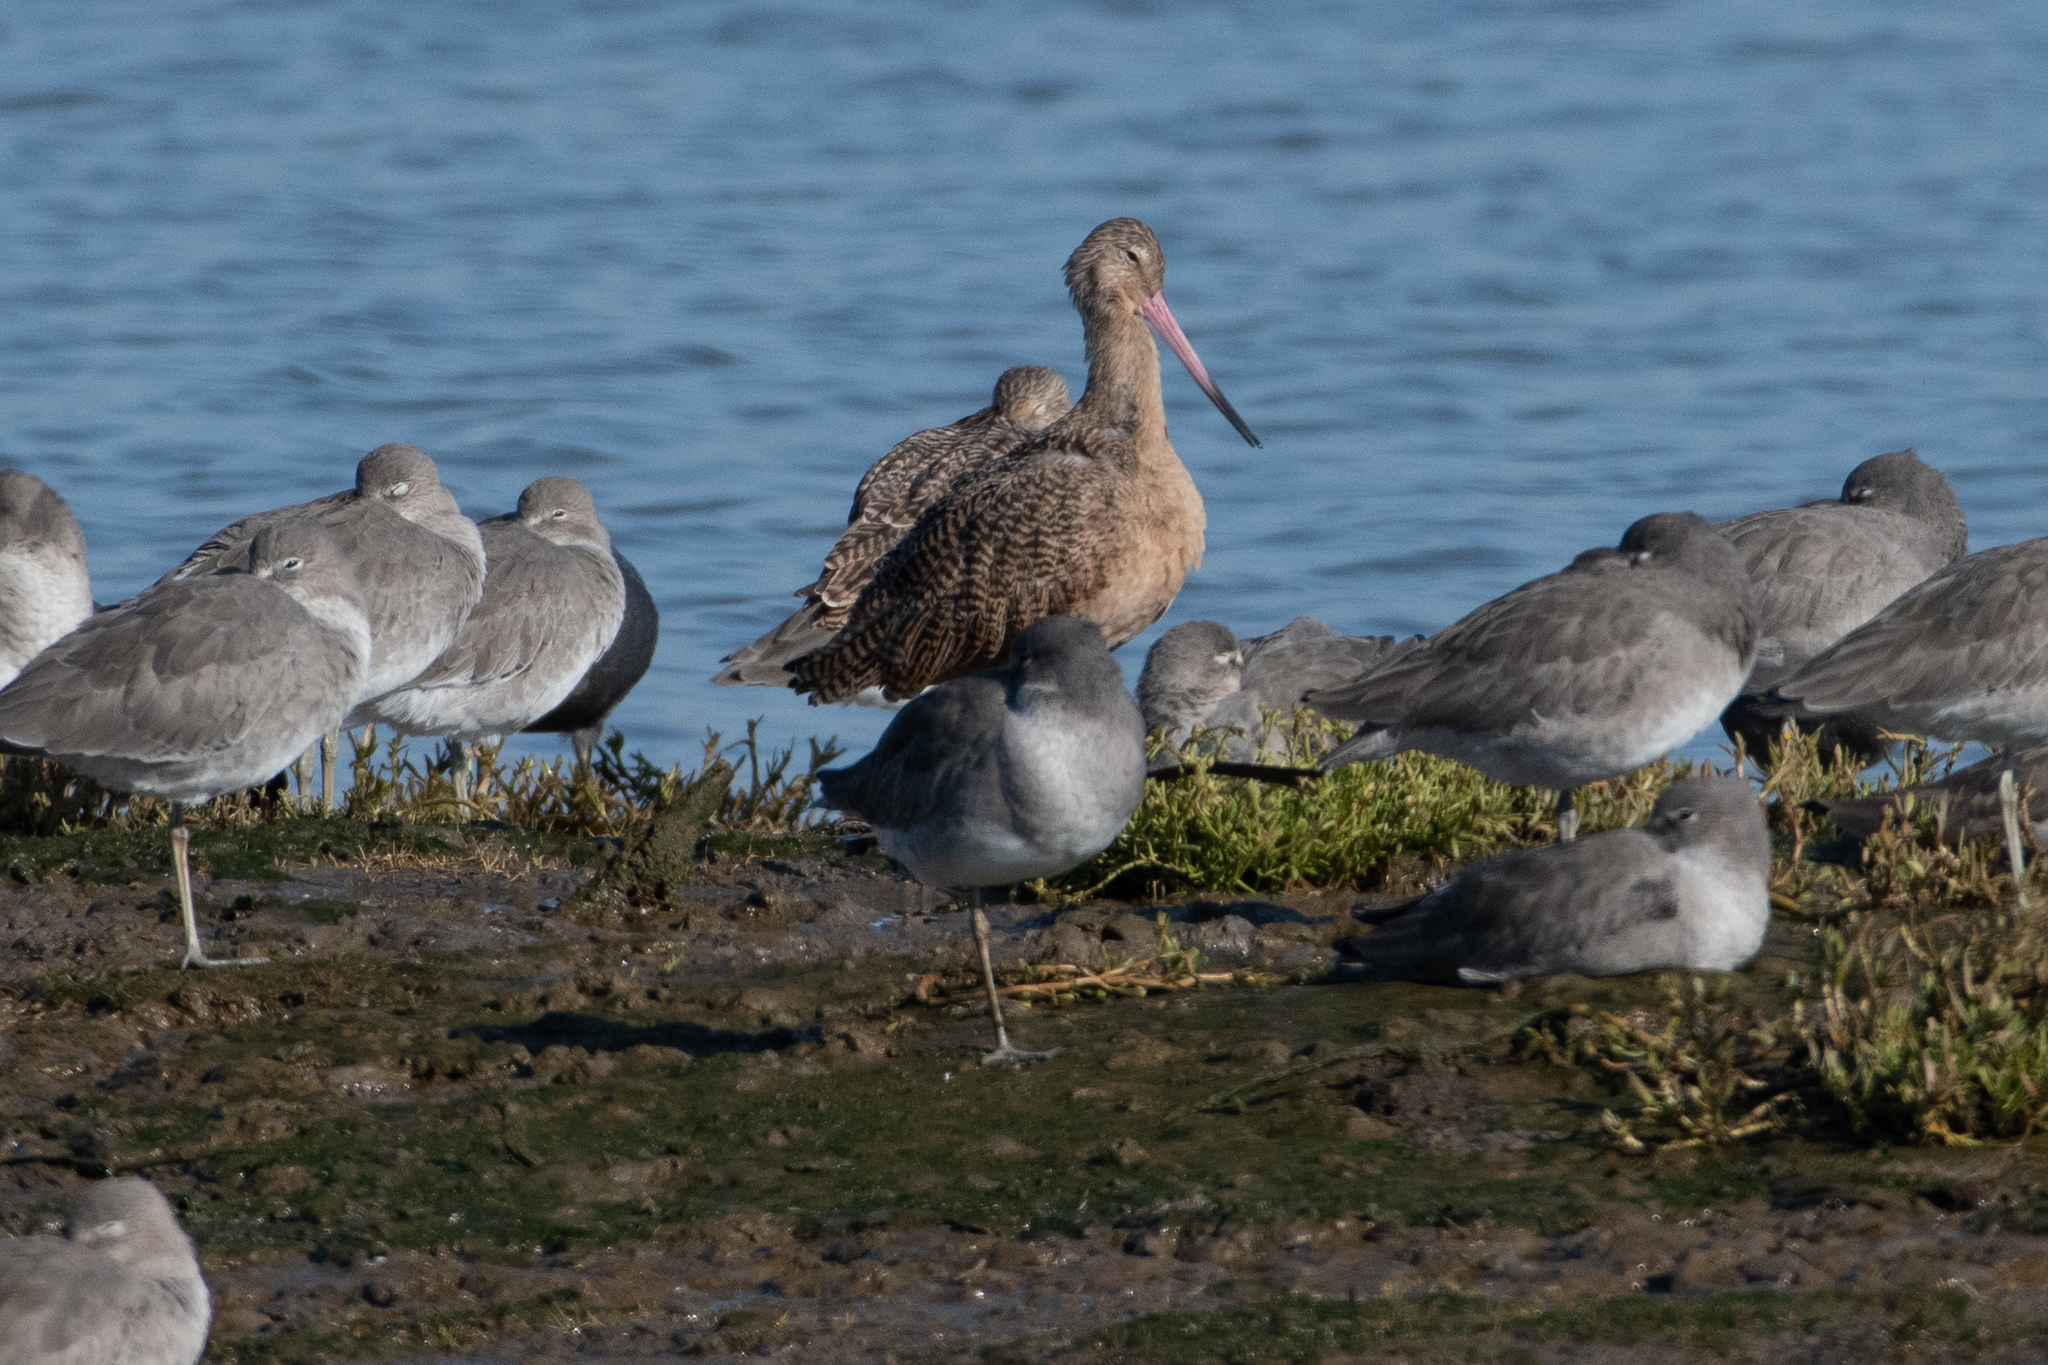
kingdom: Animalia
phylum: Chordata
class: Aves
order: Charadriiformes
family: Scolopacidae
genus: Limosa
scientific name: Limosa fedoa
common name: Marbled godwit
